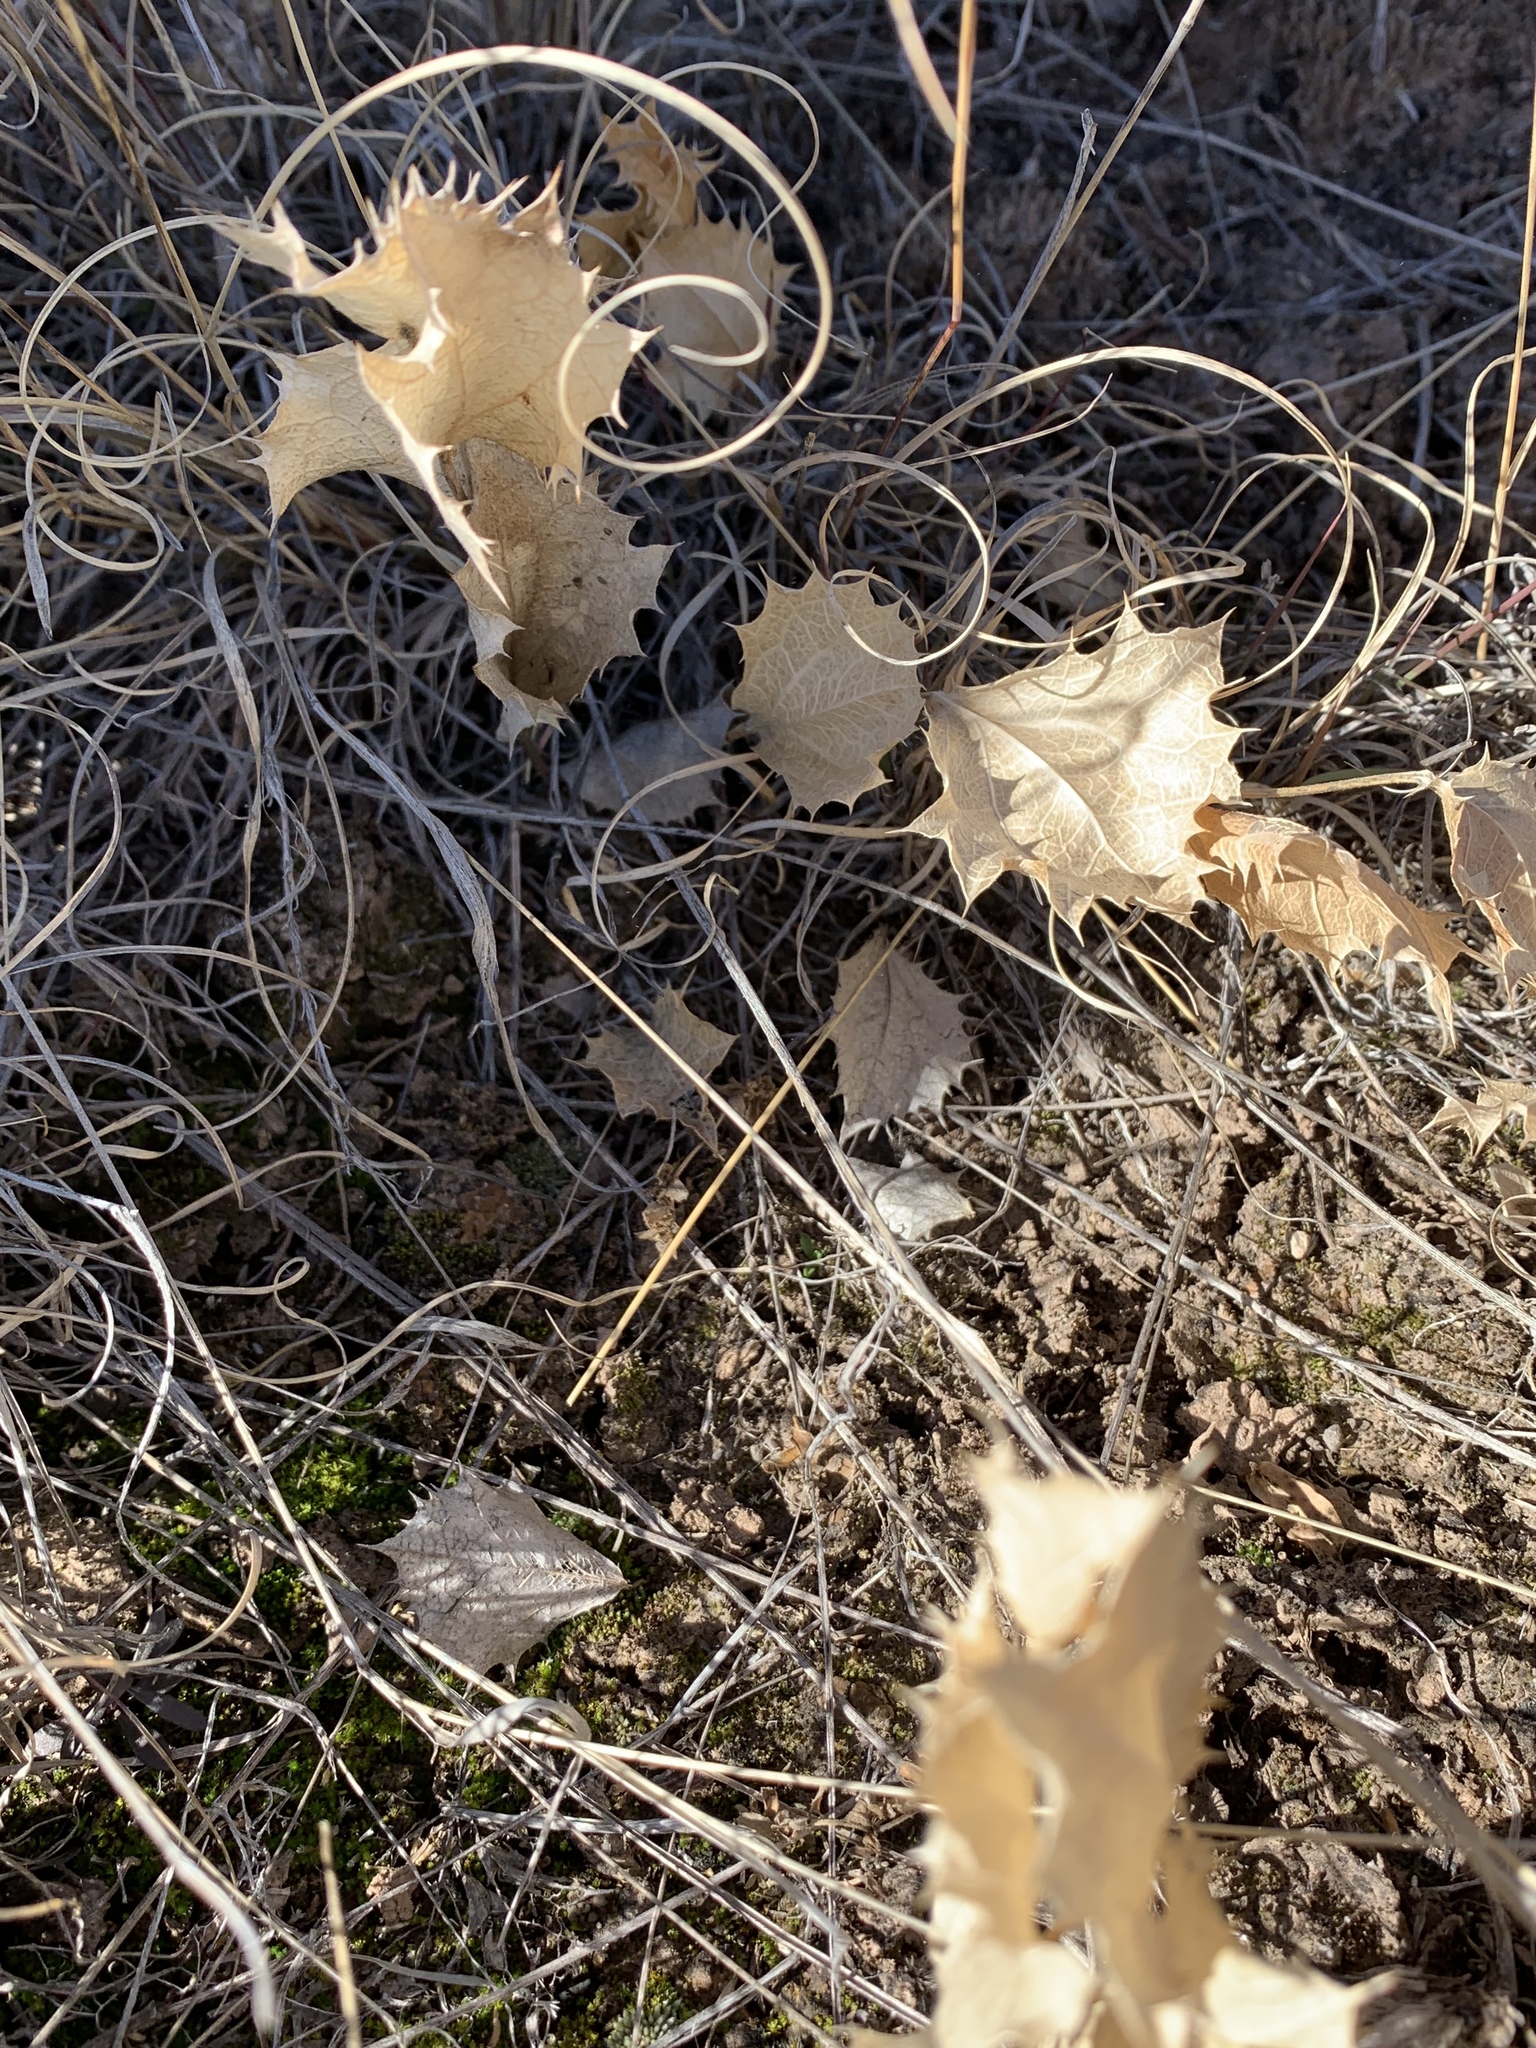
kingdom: Plantae
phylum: Tracheophyta
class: Magnoliopsida
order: Asterales
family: Asteraceae
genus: Acourtia
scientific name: Acourtia nana
